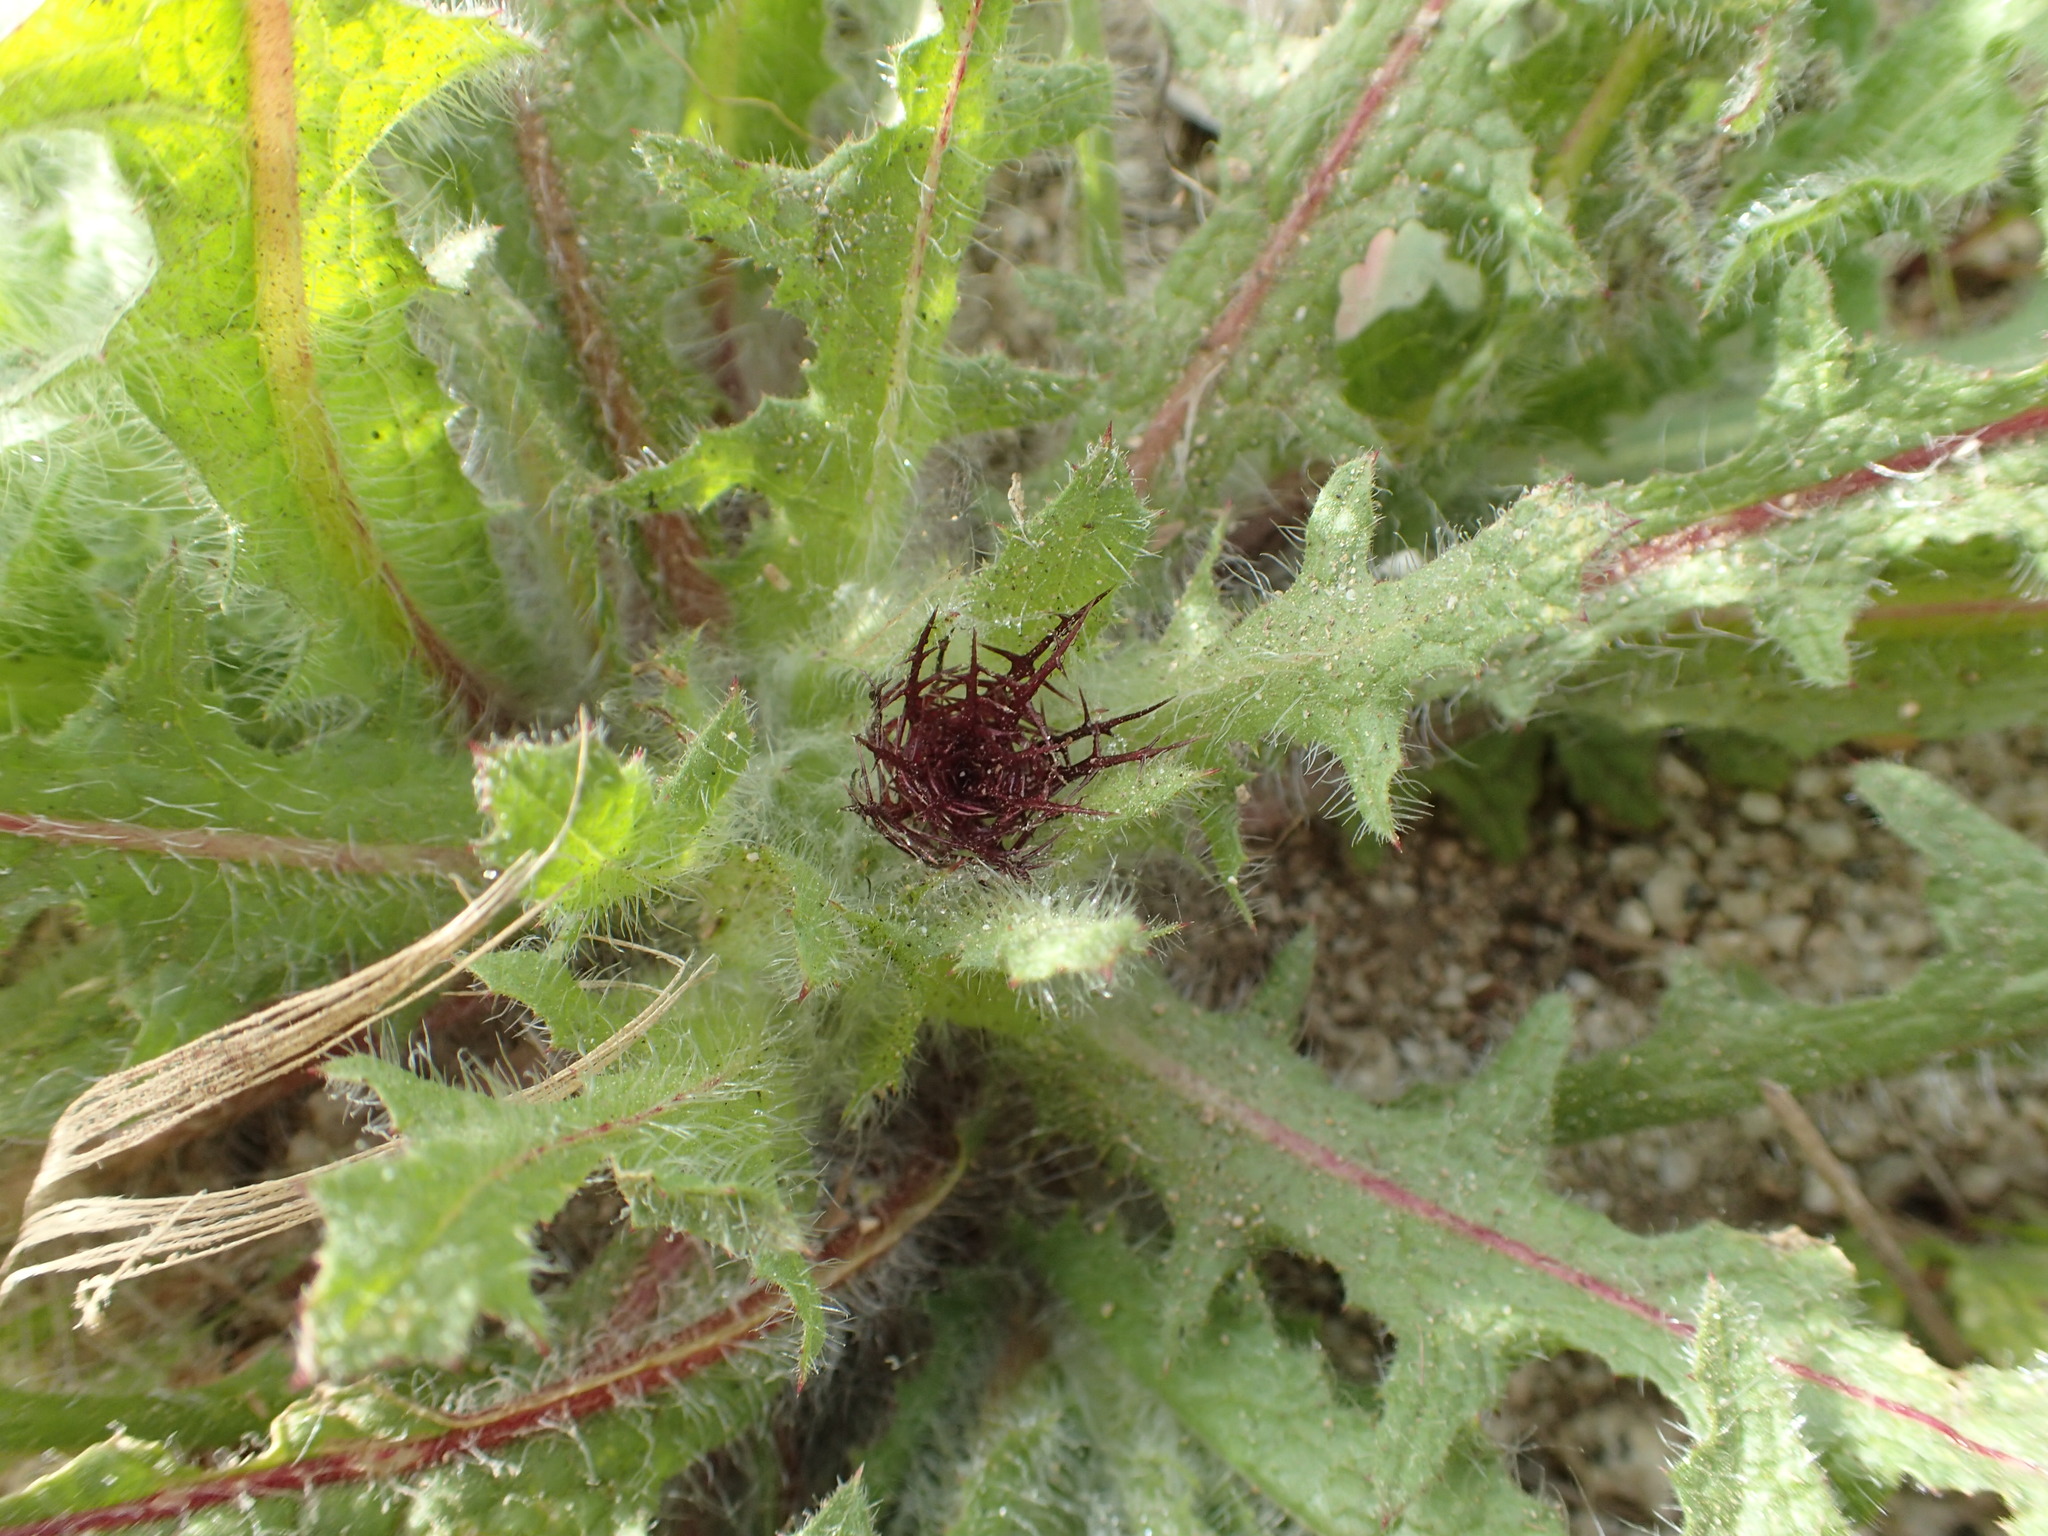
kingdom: Plantae
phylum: Tracheophyta
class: Magnoliopsida
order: Asterales
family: Asteraceae
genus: Centaurea
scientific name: Centaurea benedicta
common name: Blessed thistle
